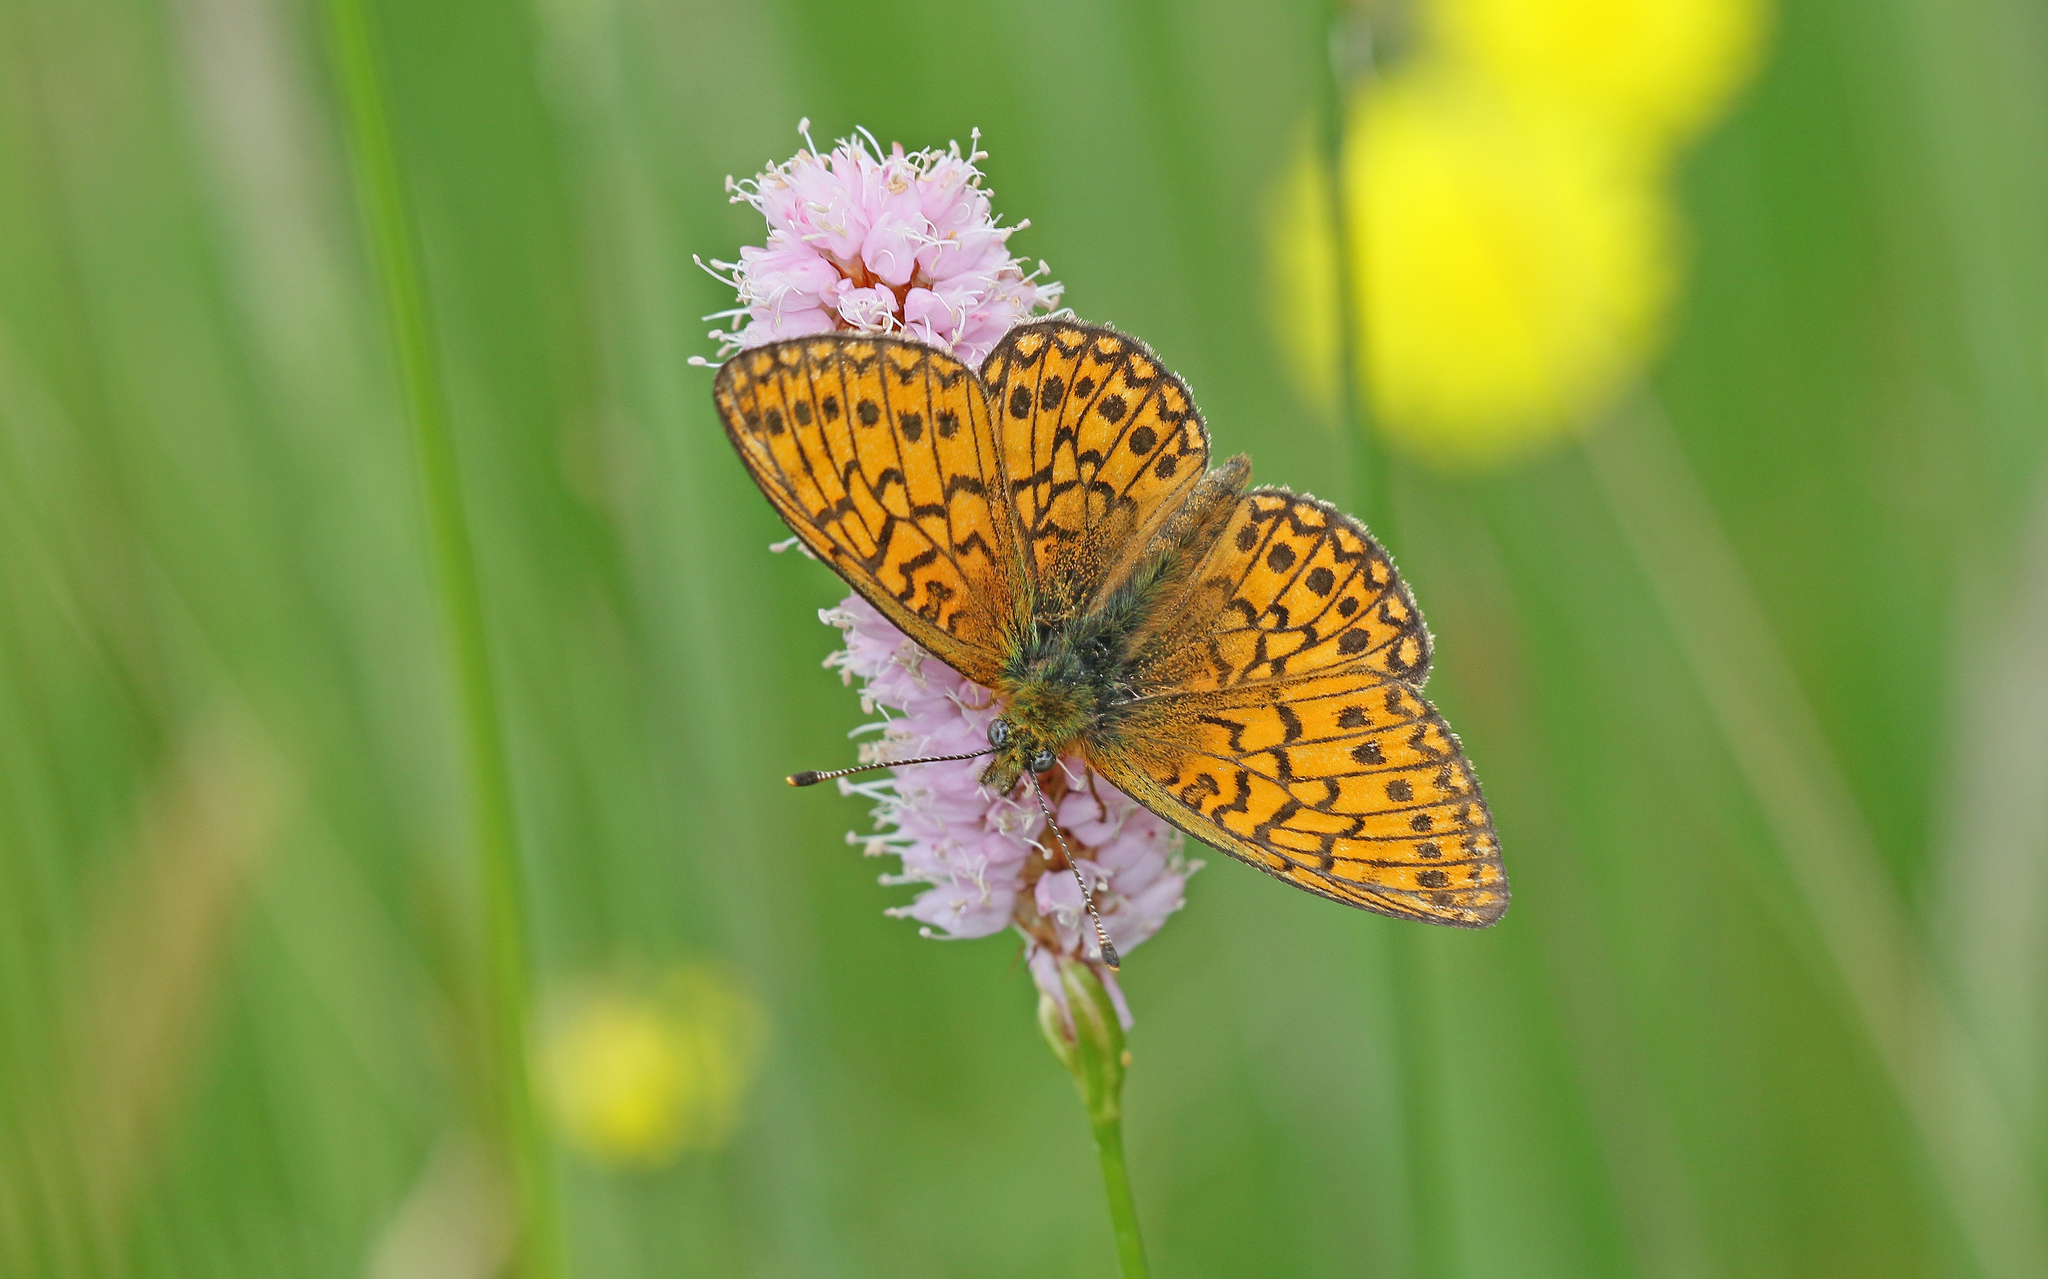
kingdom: Animalia
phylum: Arthropoda
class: Insecta
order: Lepidoptera
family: Nymphalidae
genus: Boloria
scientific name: Boloria eunomia
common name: Bog fritillary
